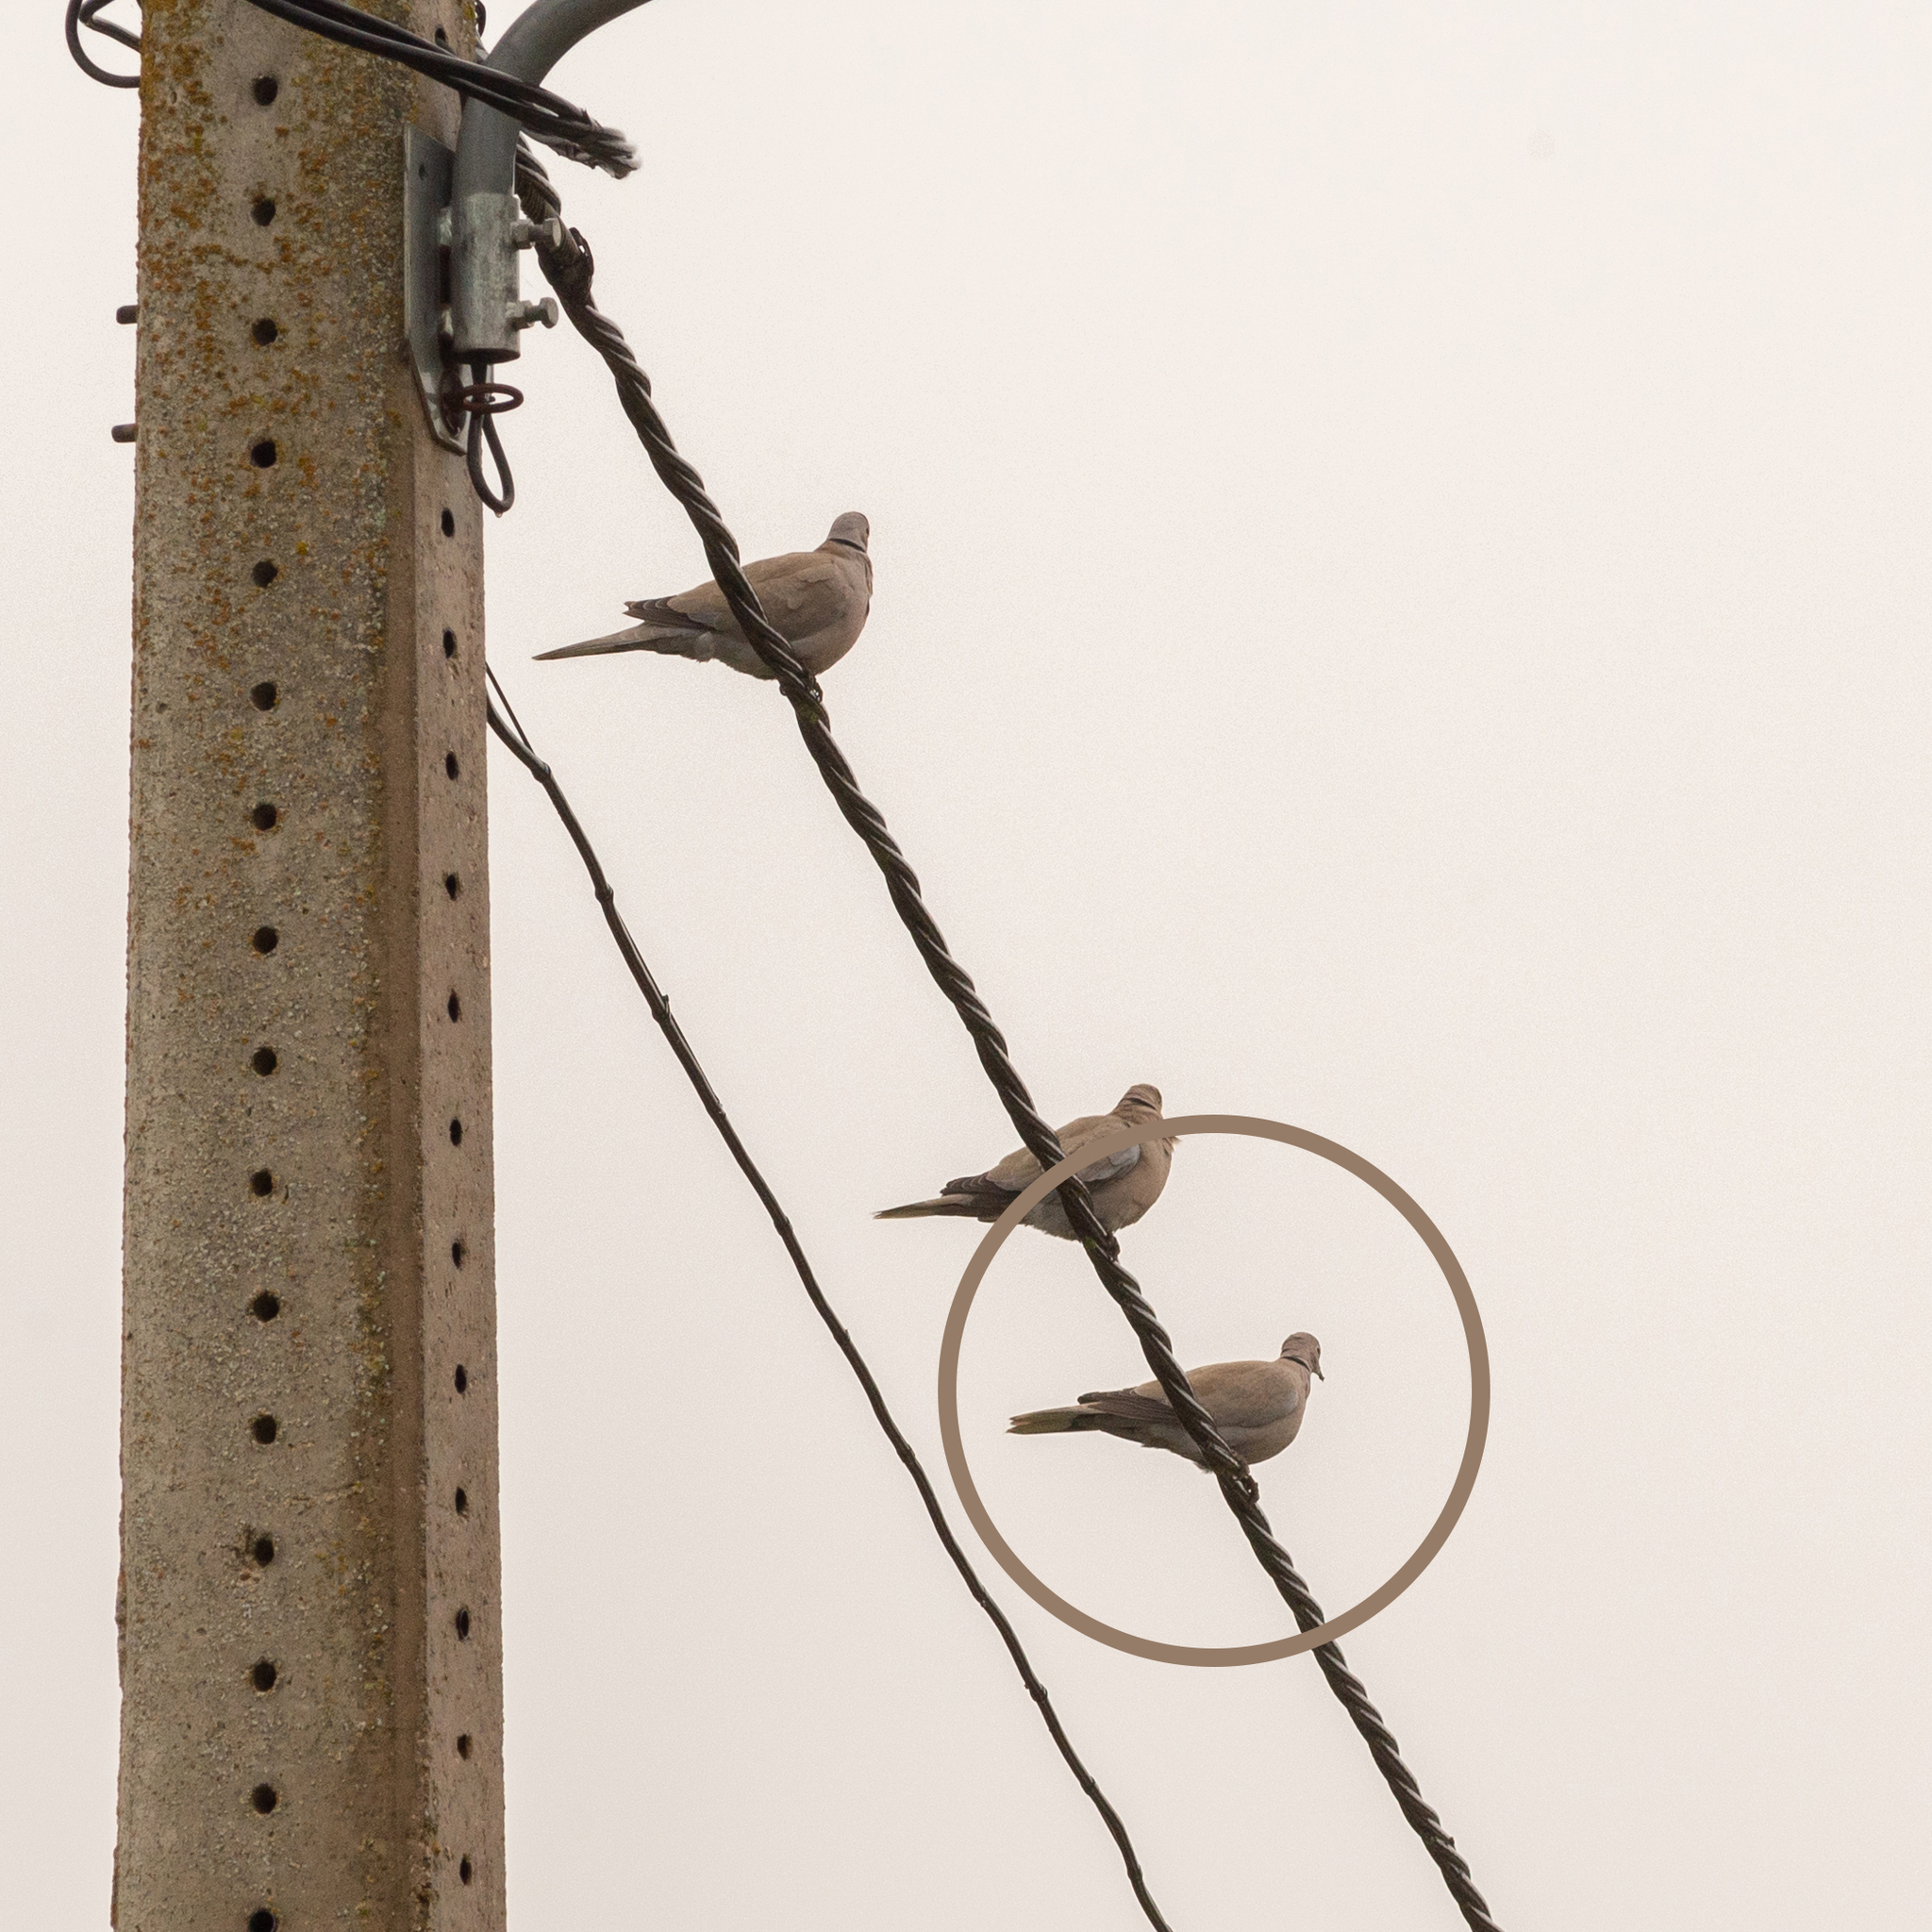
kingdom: Animalia
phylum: Chordata
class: Aves
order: Columbiformes
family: Columbidae
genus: Streptopelia
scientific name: Streptopelia decaocto
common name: Eurasian collared dove
